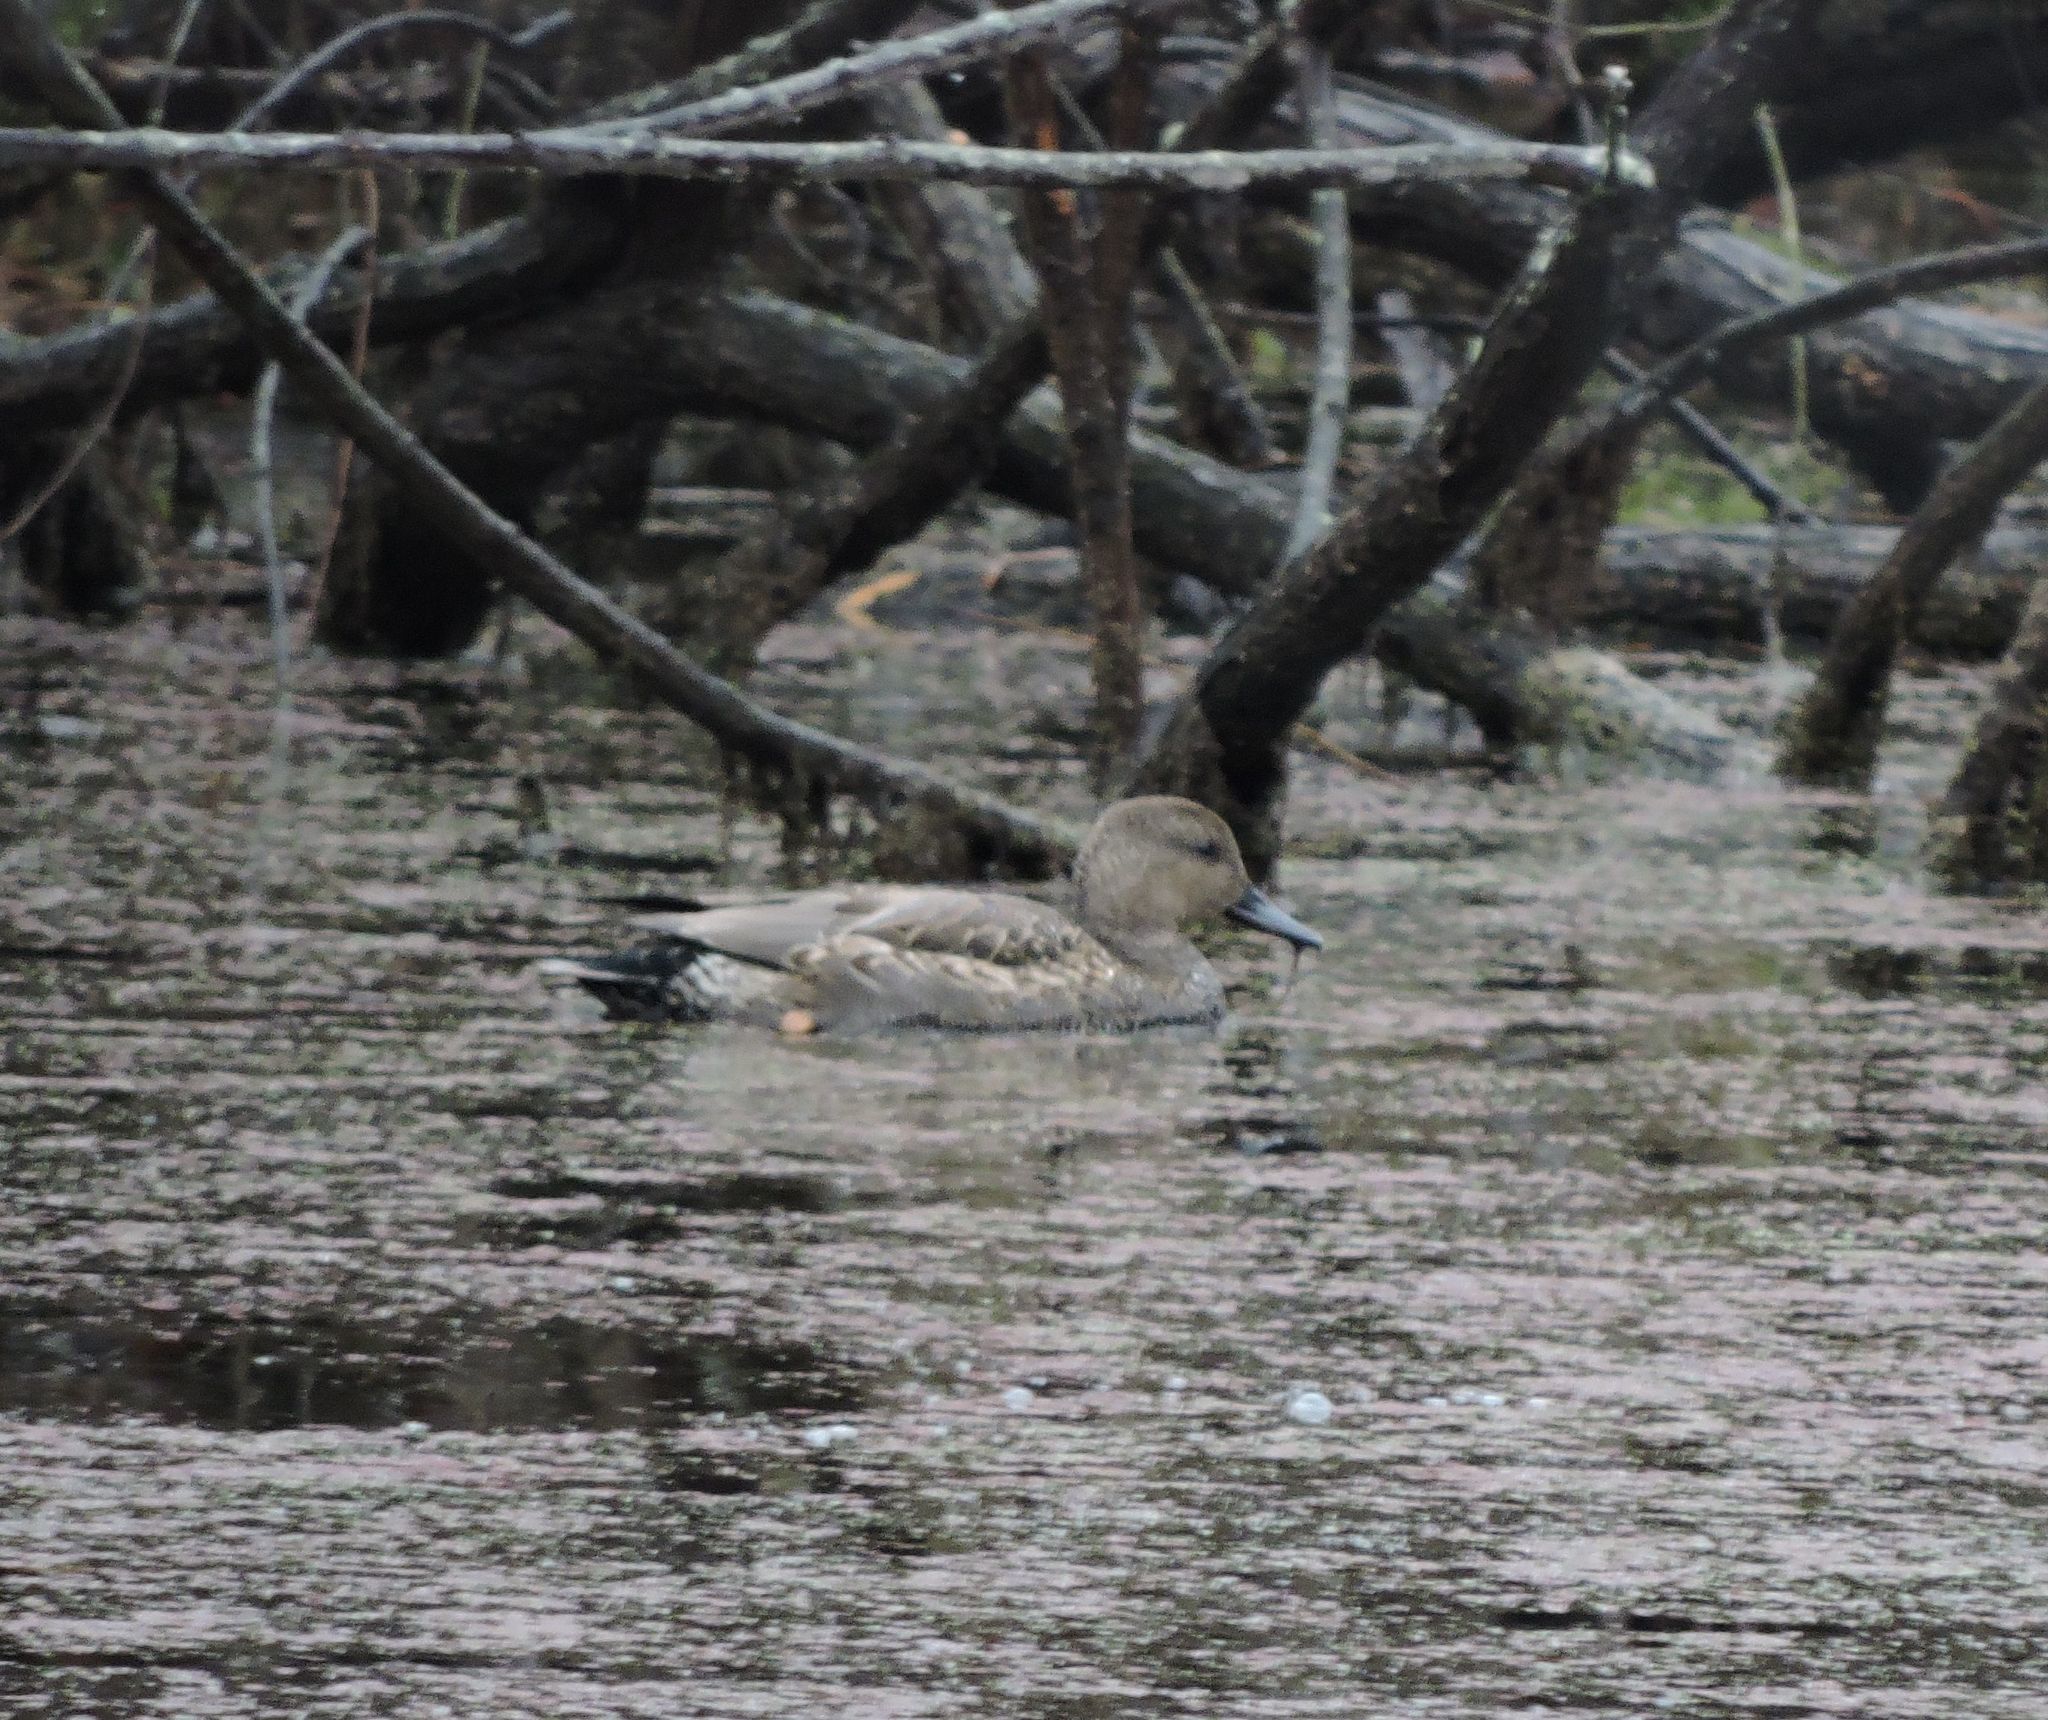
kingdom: Animalia
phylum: Chordata
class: Aves
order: Anseriformes
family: Anatidae
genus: Mareca
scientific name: Mareca strepera
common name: Gadwall
